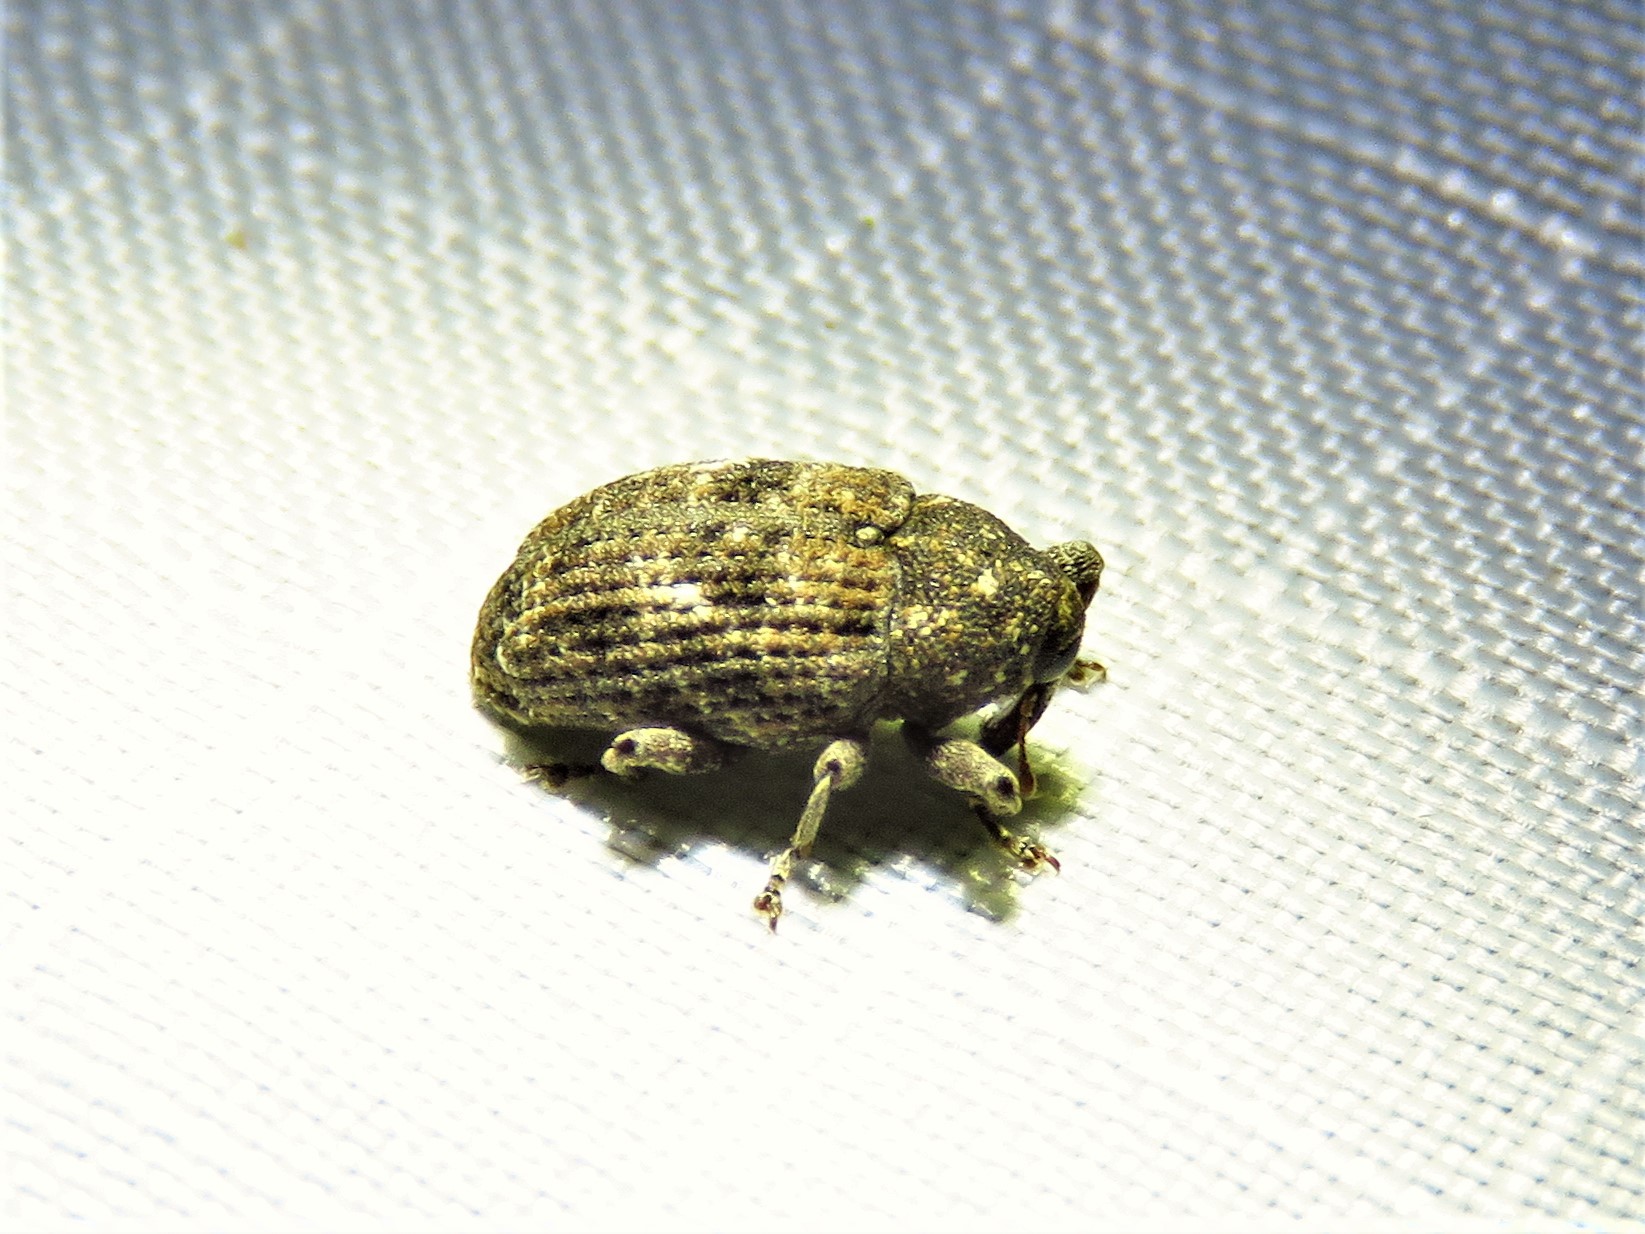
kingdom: Animalia
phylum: Arthropoda
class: Insecta
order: Coleoptera
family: Curculionidae
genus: Cophes
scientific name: Cophes oblongus
